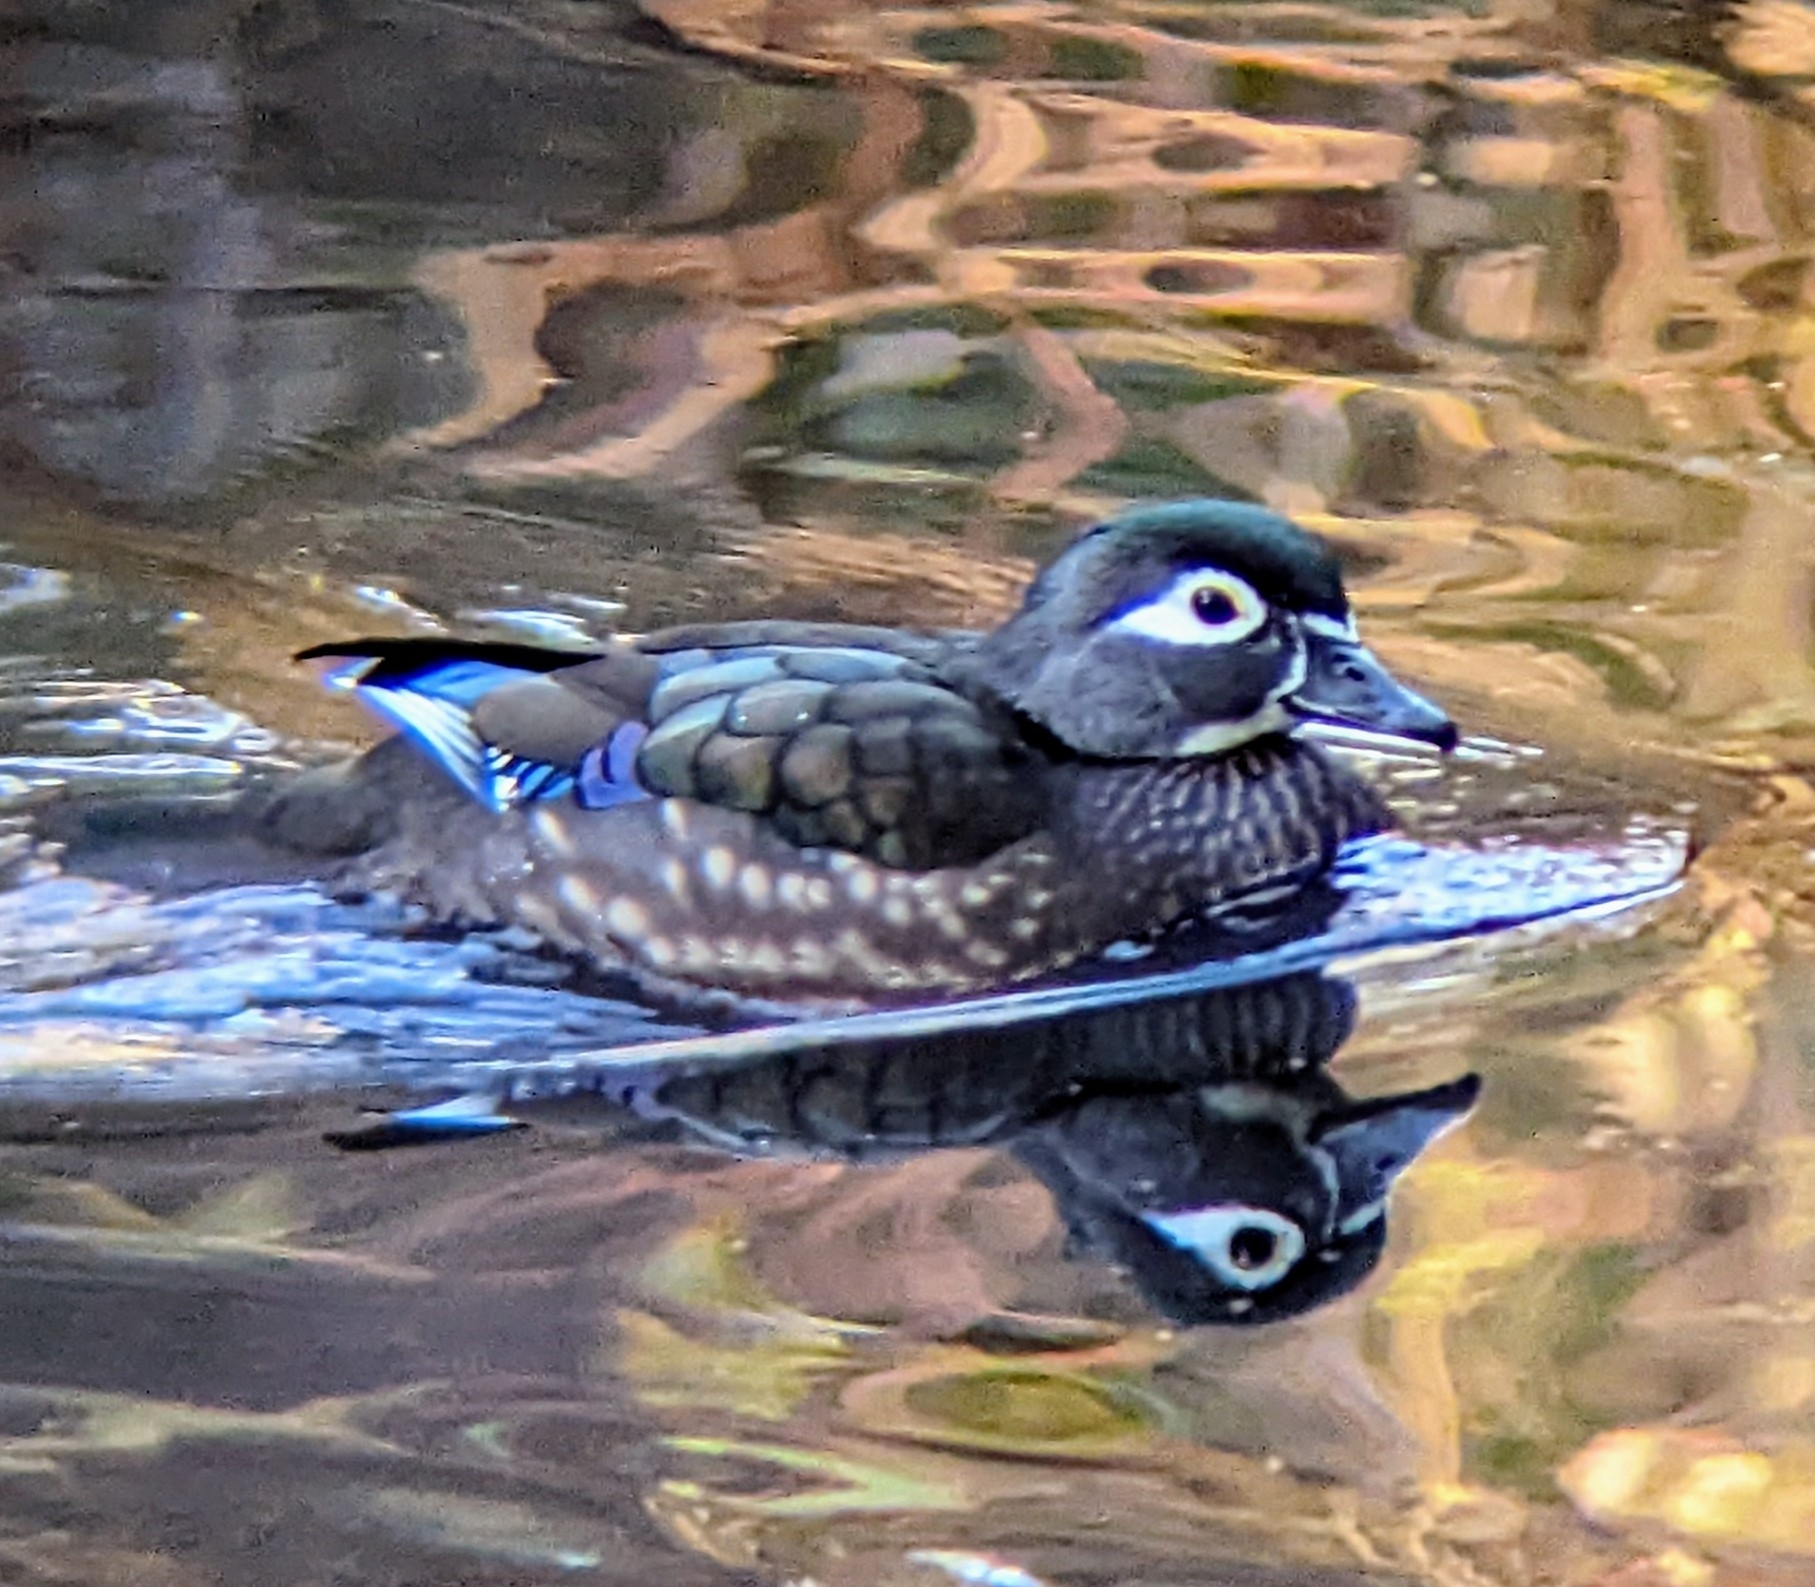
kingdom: Animalia
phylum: Chordata
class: Aves
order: Anseriformes
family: Anatidae
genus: Aix
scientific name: Aix sponsa
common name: Wood duck
